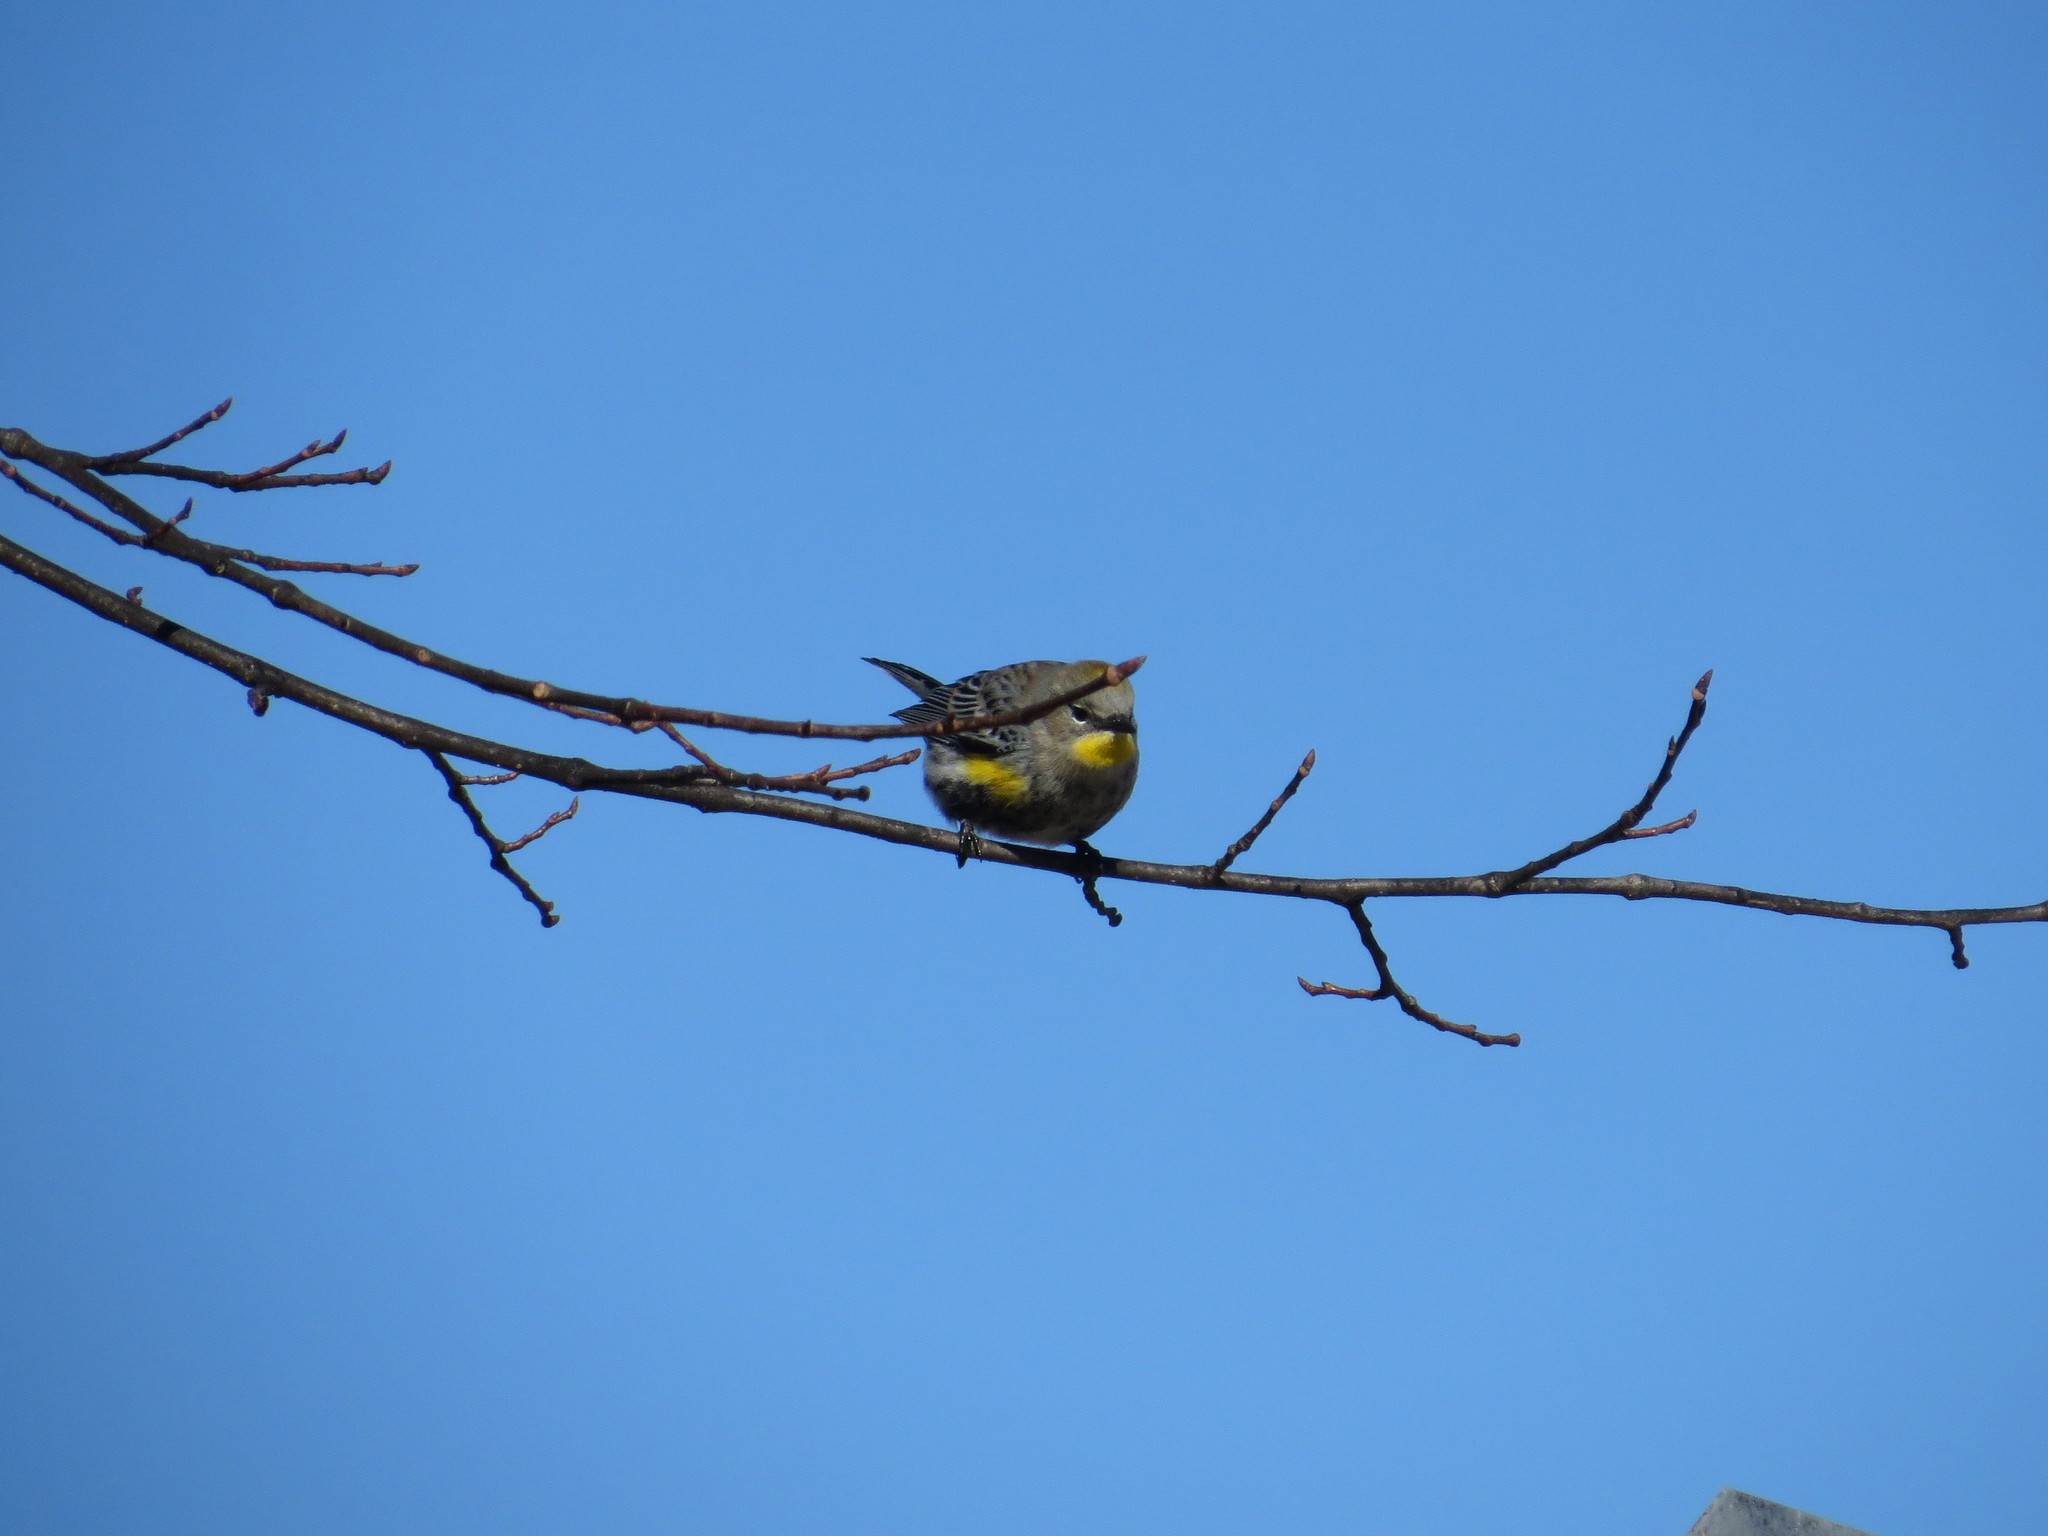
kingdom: Animalia
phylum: Chordata
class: Aves
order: Passeriformes
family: Parulidae
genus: Setophaga
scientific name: Setophaga auduboni
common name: Audubon's warbler
